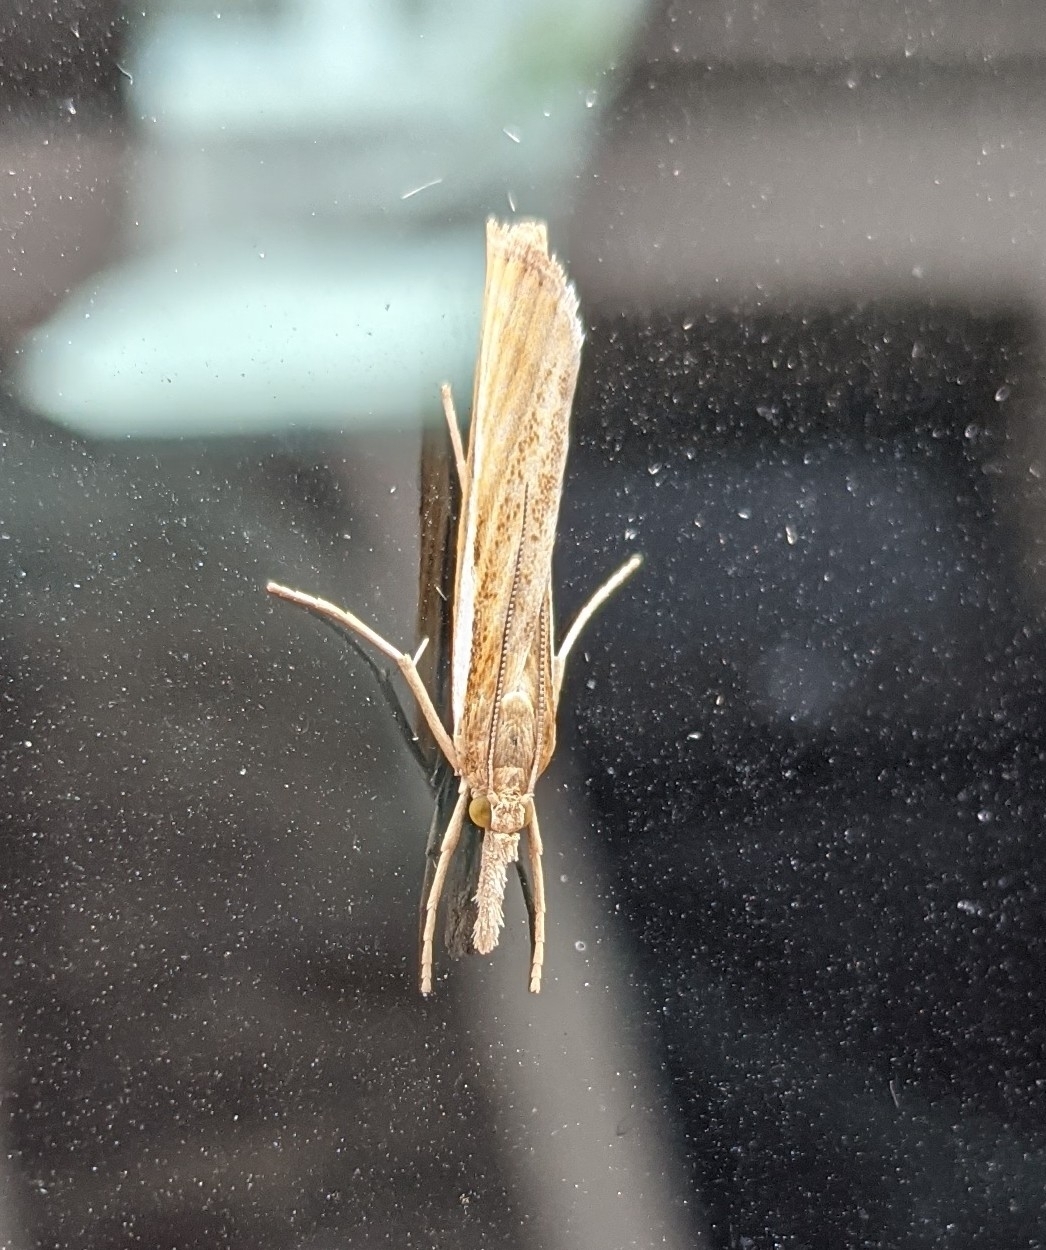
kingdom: Animalia
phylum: Arthropoda
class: Insecta
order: Lepidoptera
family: Crambidae
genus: Agriphila
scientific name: Agriphila tristellus
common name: Common grass-veneer
